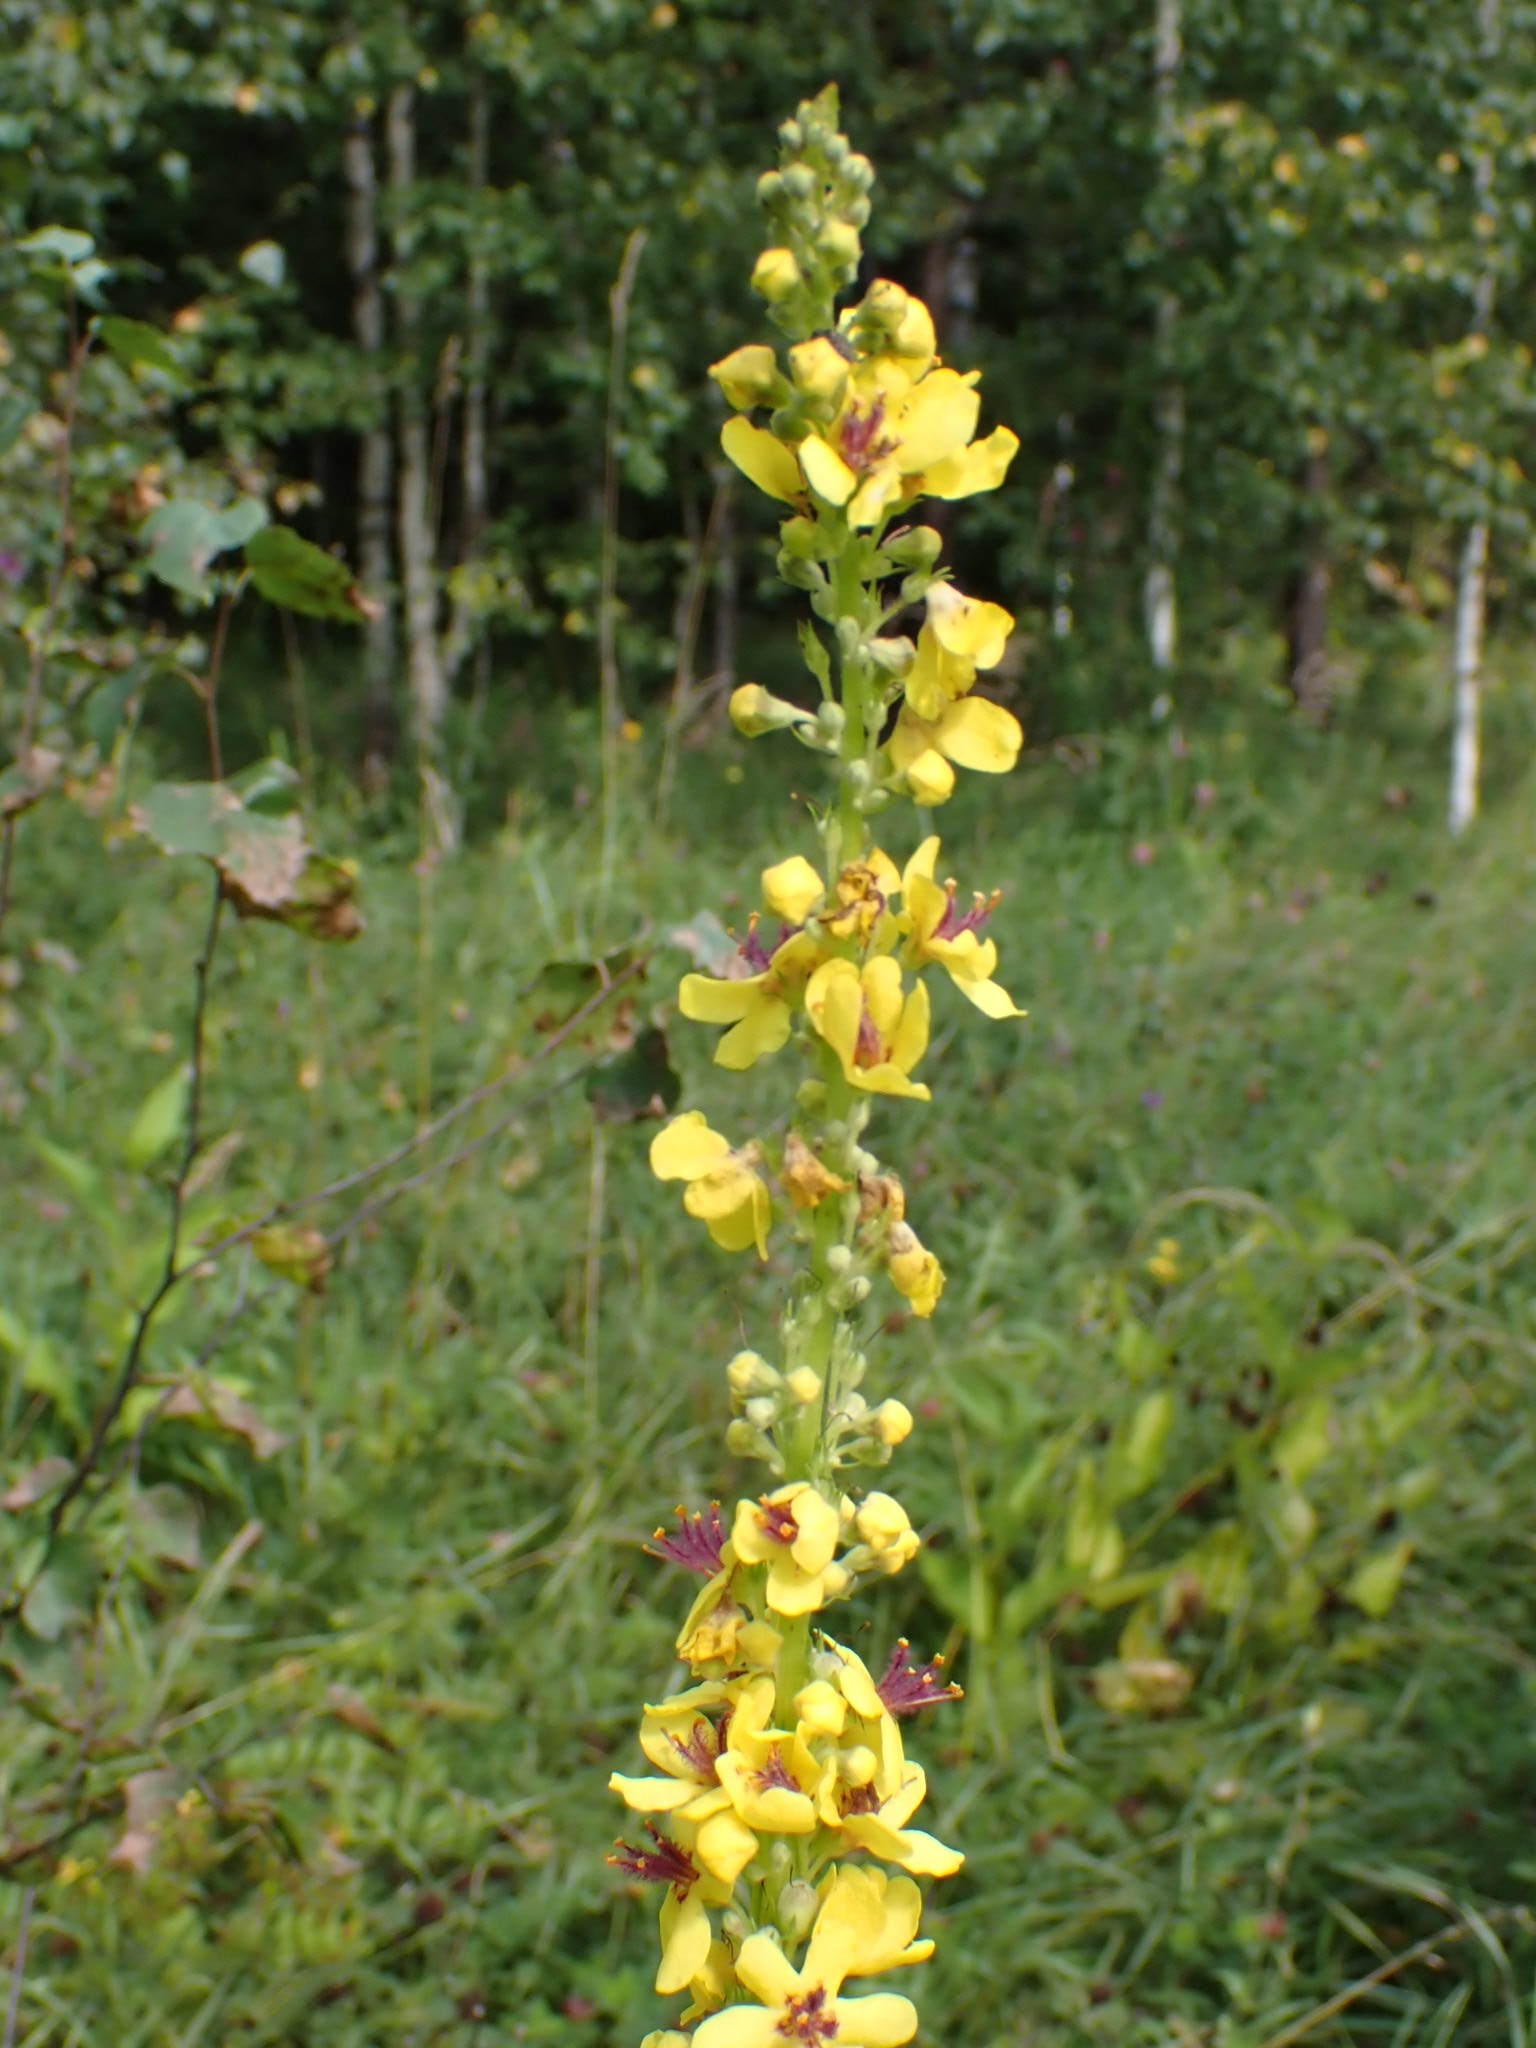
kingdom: Plantae
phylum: Tracheophyta
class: Magnoliopsida
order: Lamiales
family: Scrophulariaceae
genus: Verbascum
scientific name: Verbascum nigrum
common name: Dark mullein
